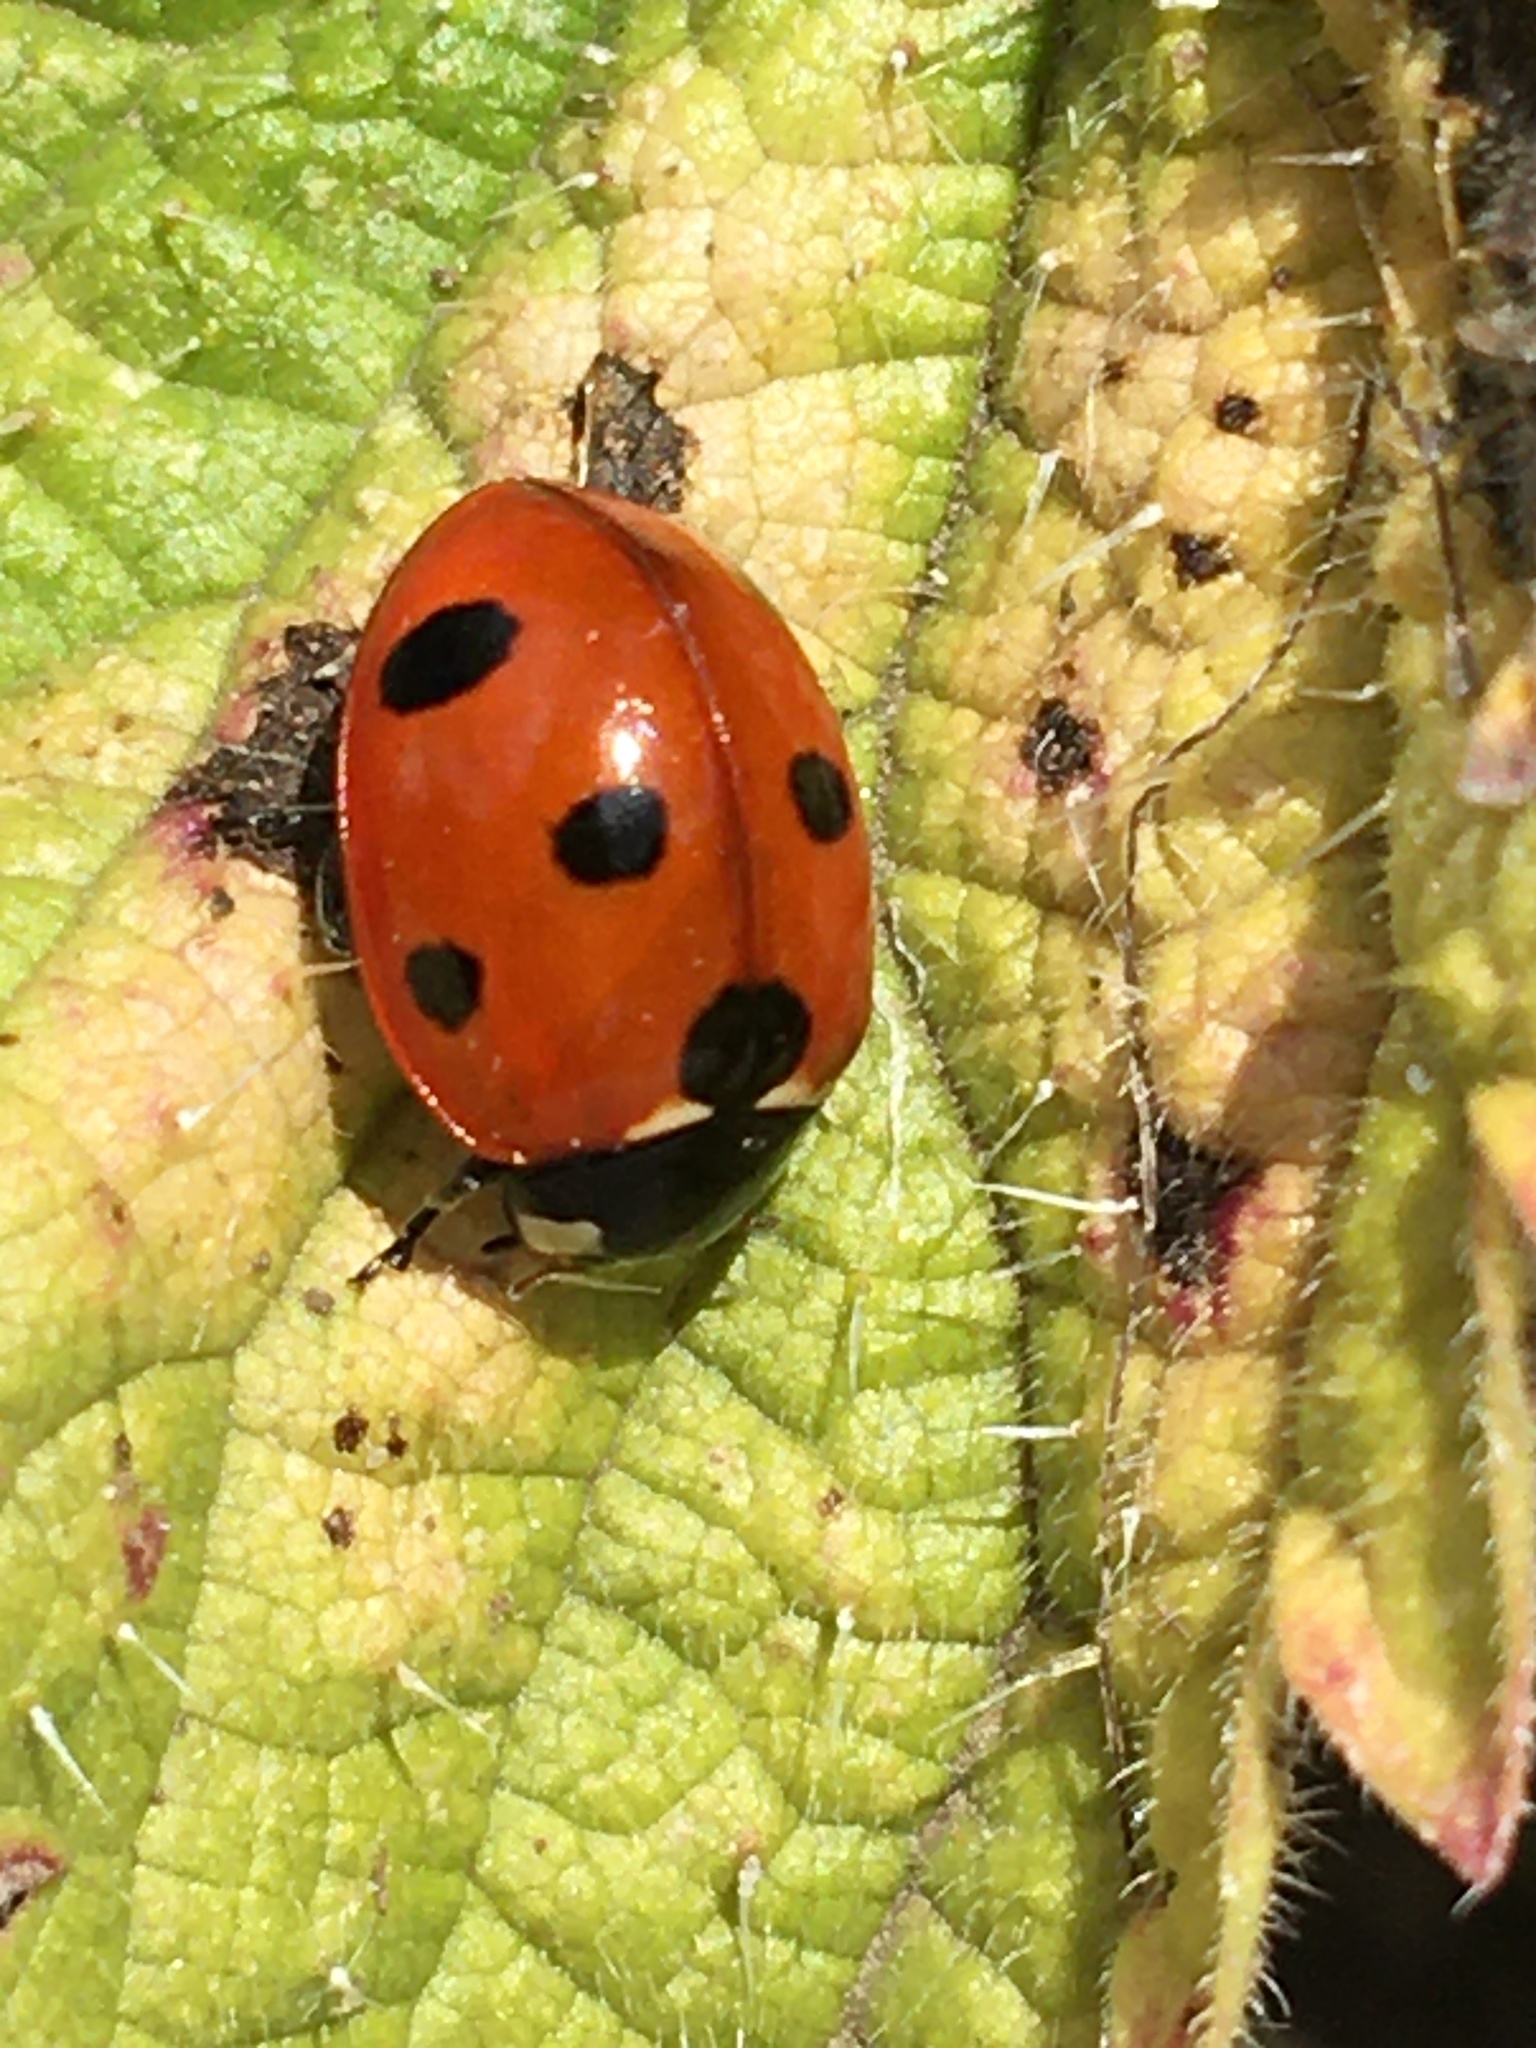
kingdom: Animalia
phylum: Arthropoda
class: Insecta
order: Coleoptera
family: Coccinellidae
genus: Coccinella
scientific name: Coccinella septempunctata
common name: Sevenspotted lady beetle
